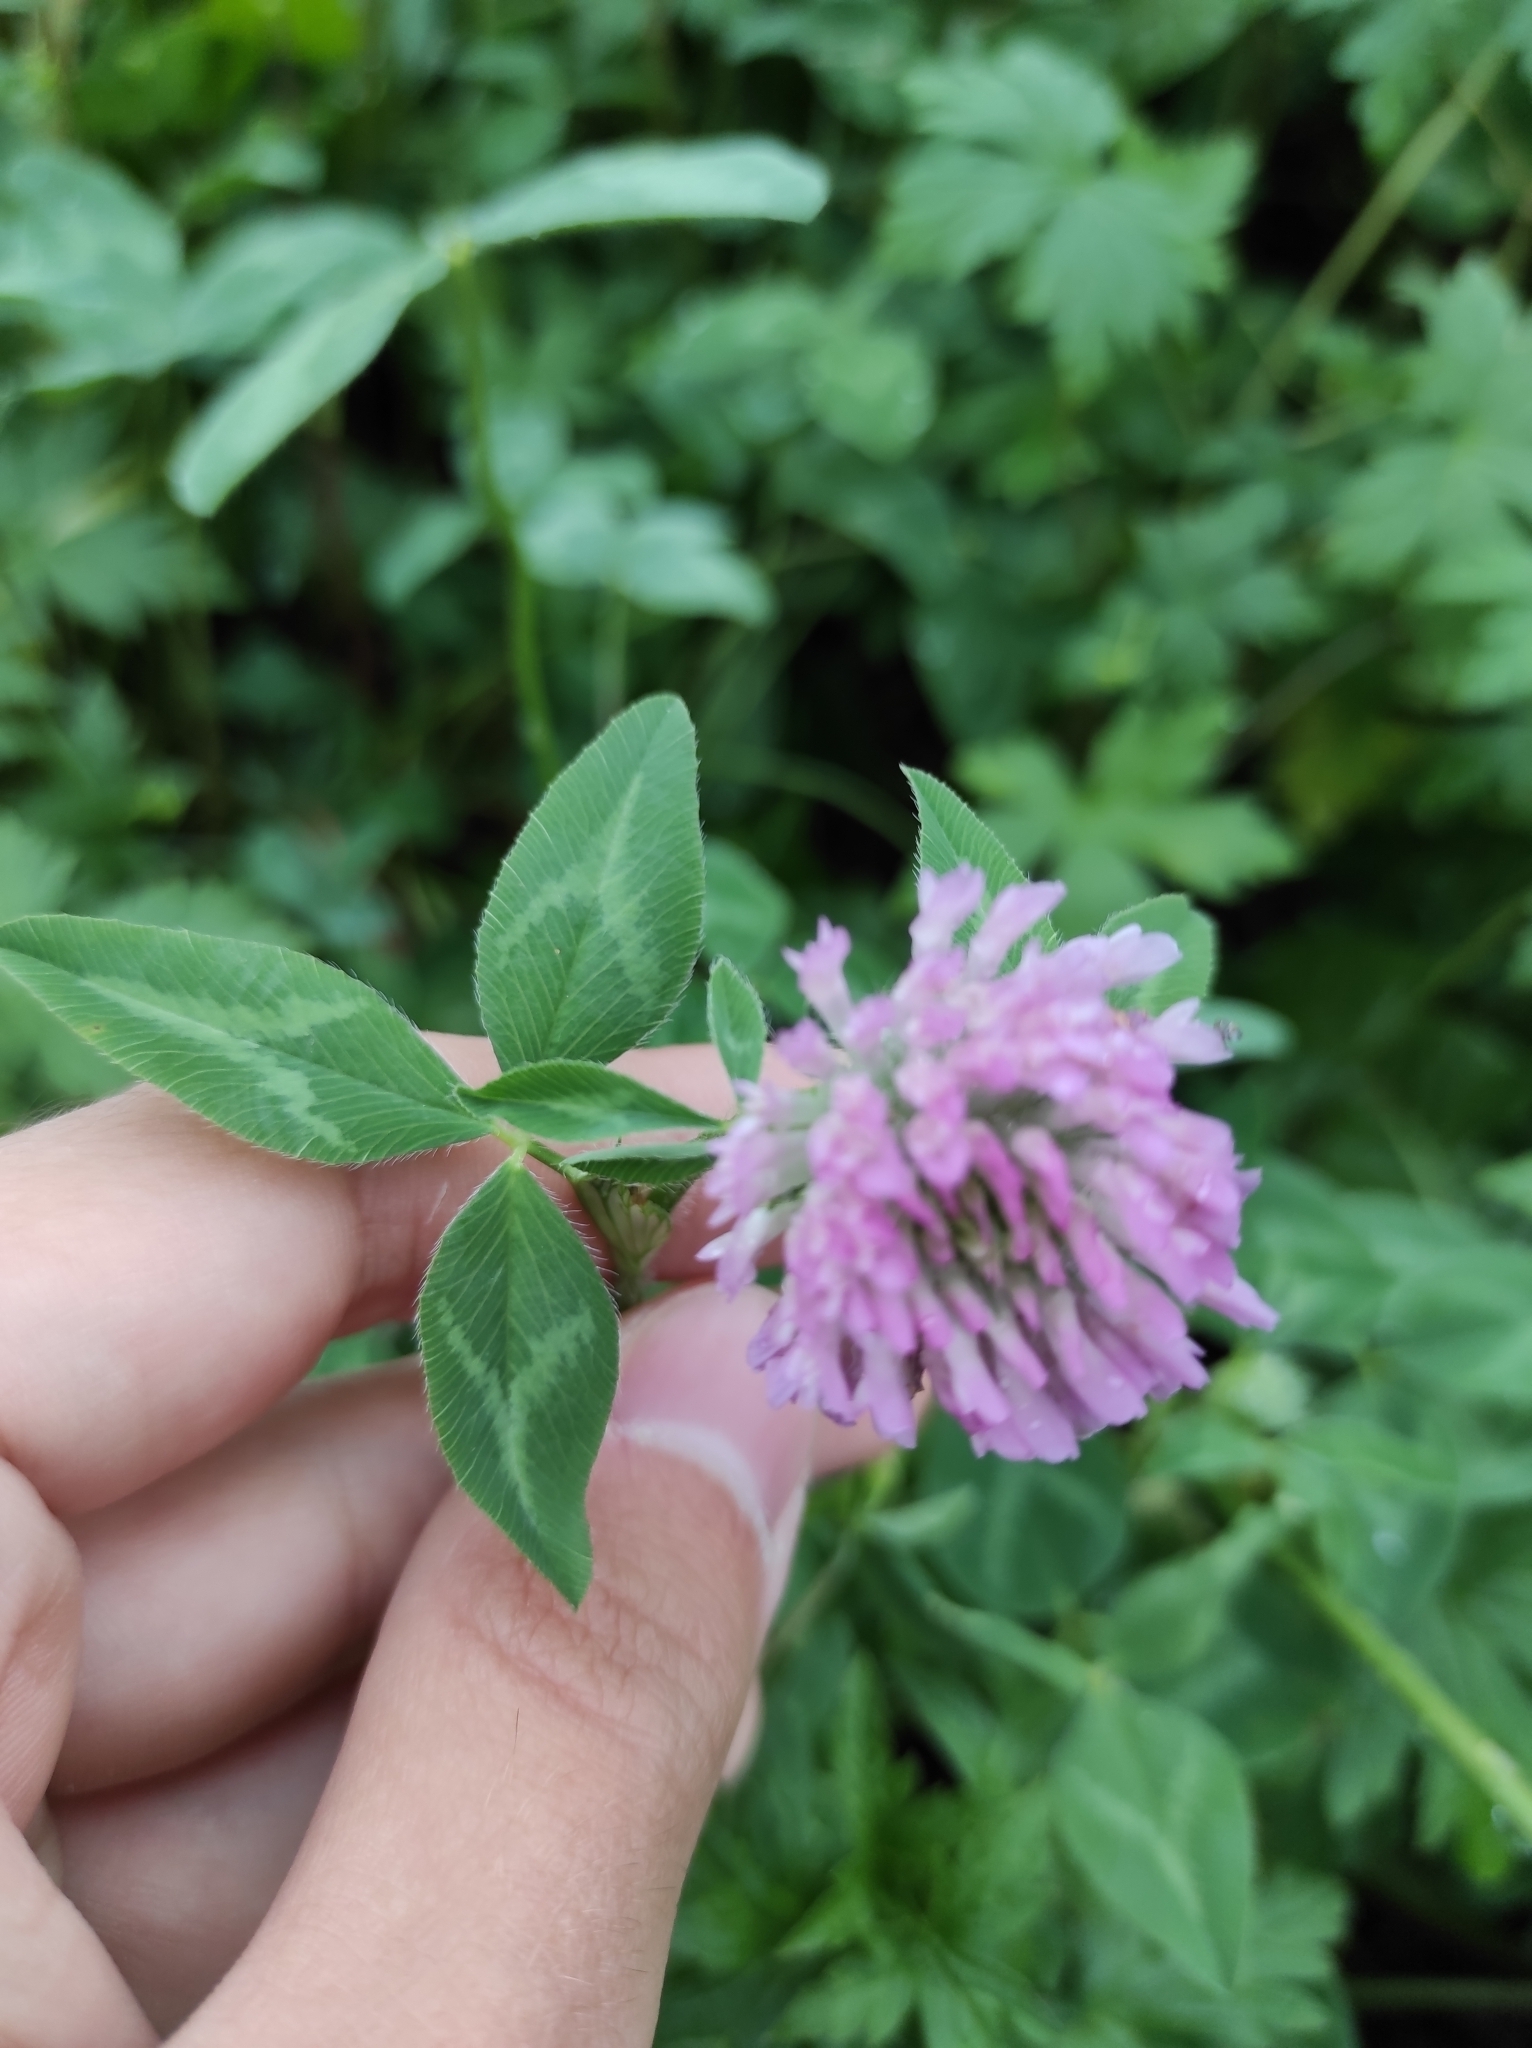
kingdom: Plantae
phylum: Tracheophyta
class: Magnoliopsida
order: Fabales
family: Fabaceae
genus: Trifolium
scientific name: Trifolium pratense
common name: Red clover
